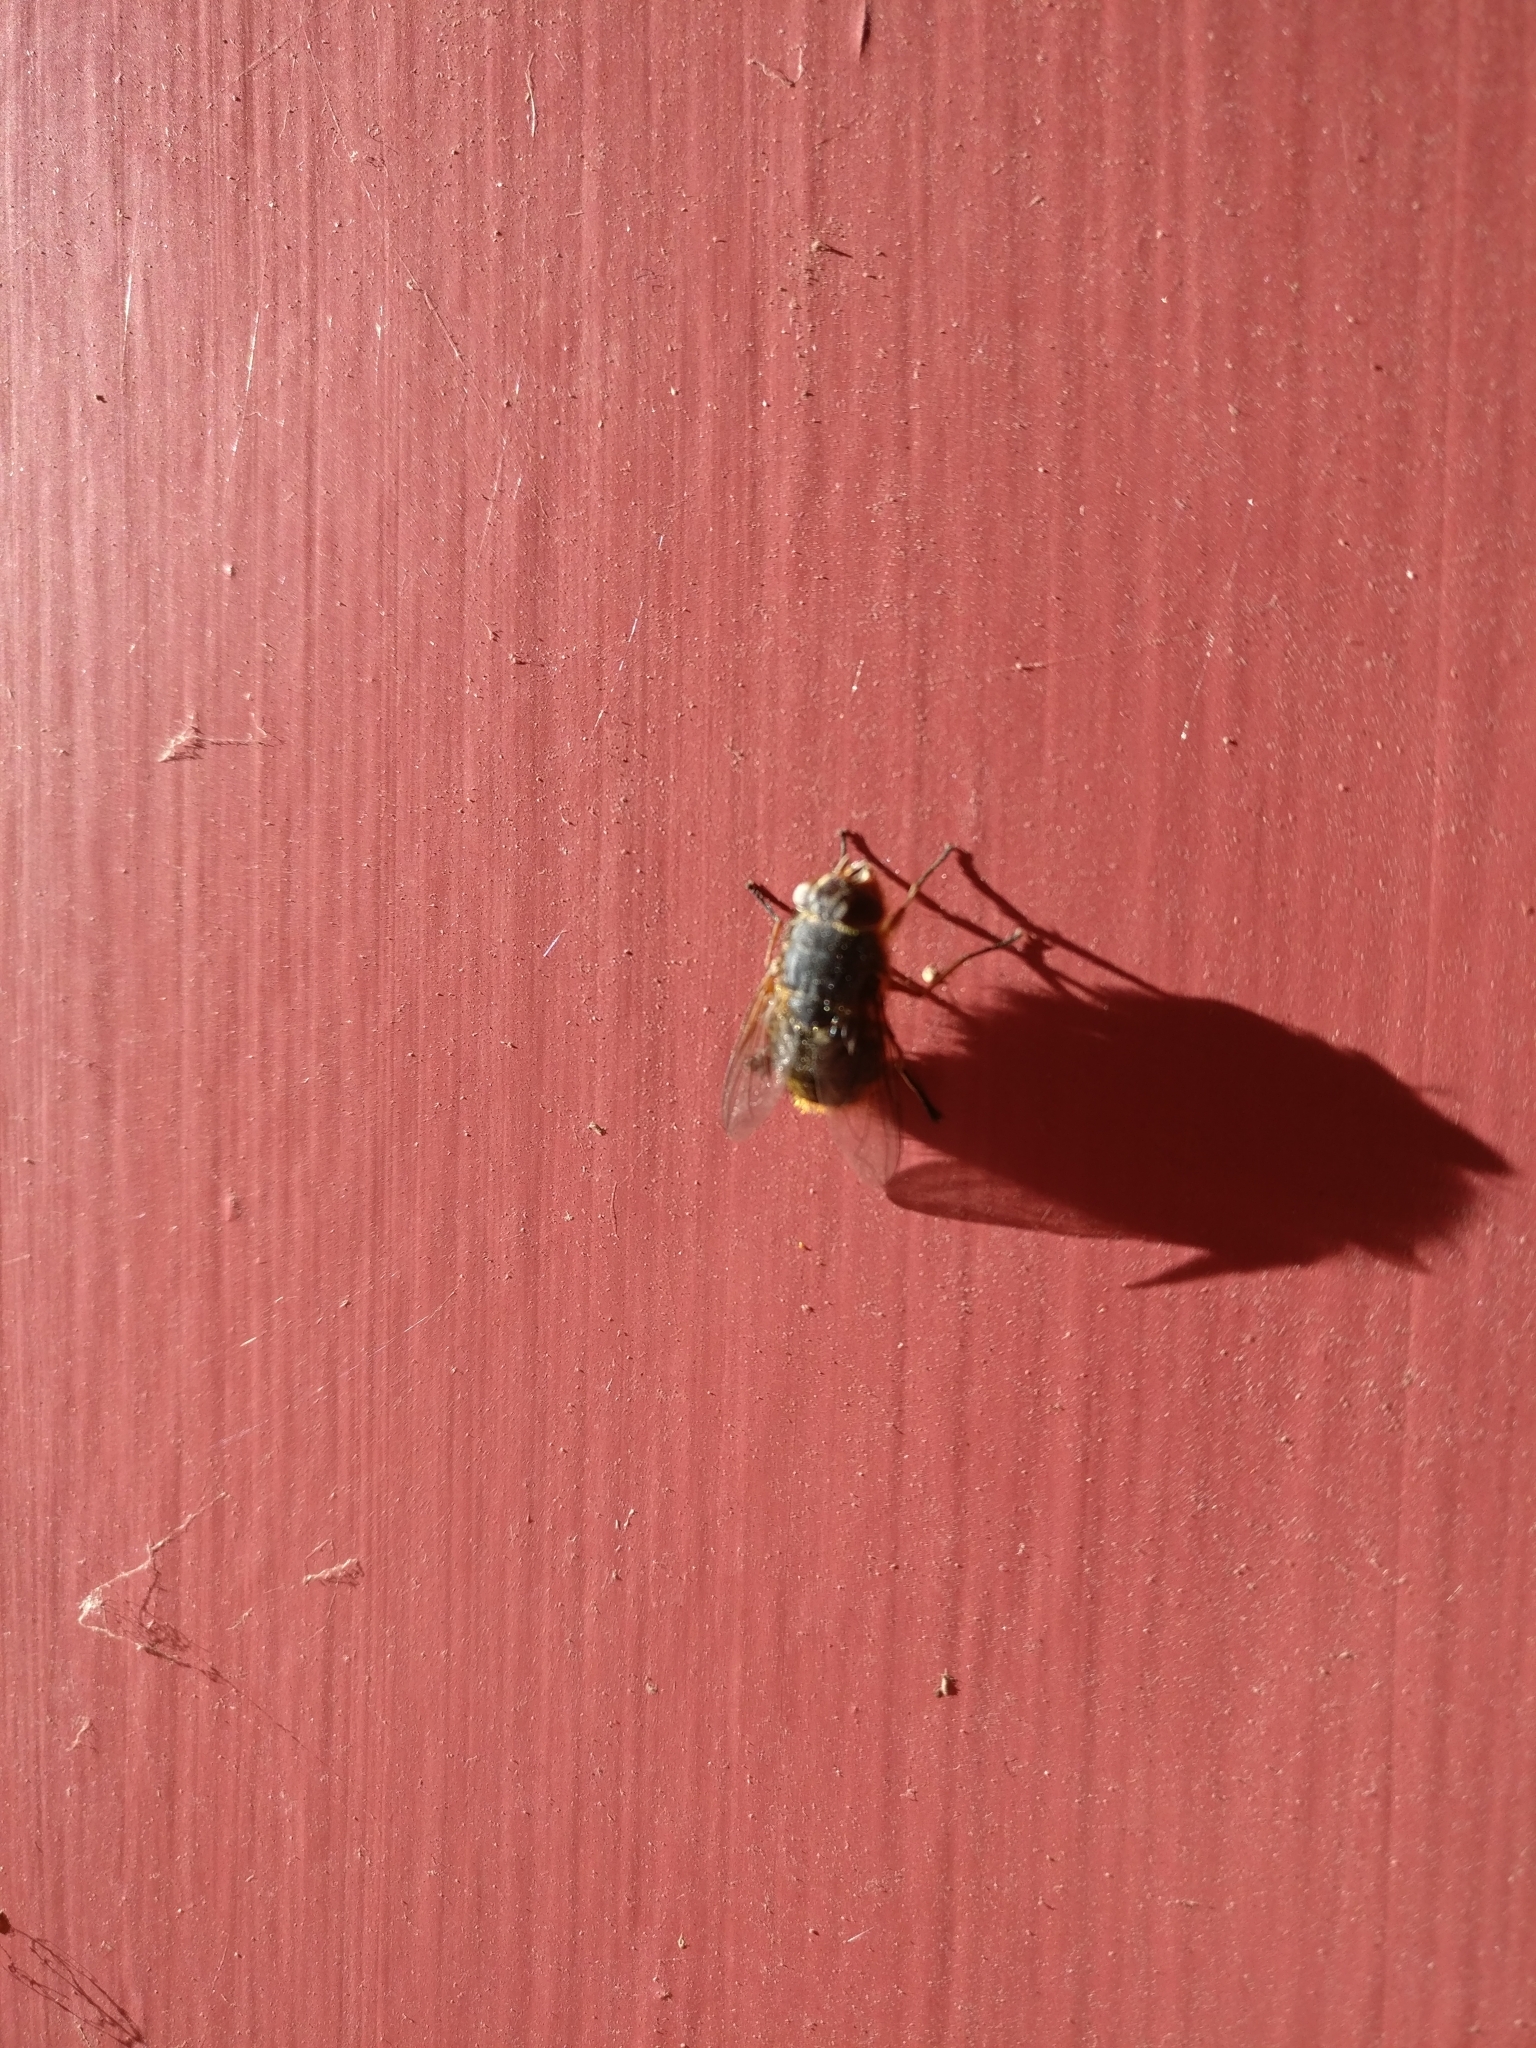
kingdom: Animalia
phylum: Arthropoda
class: Insecta
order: Diptera
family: Calliphoridae
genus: Calliphora
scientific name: Calliphora
